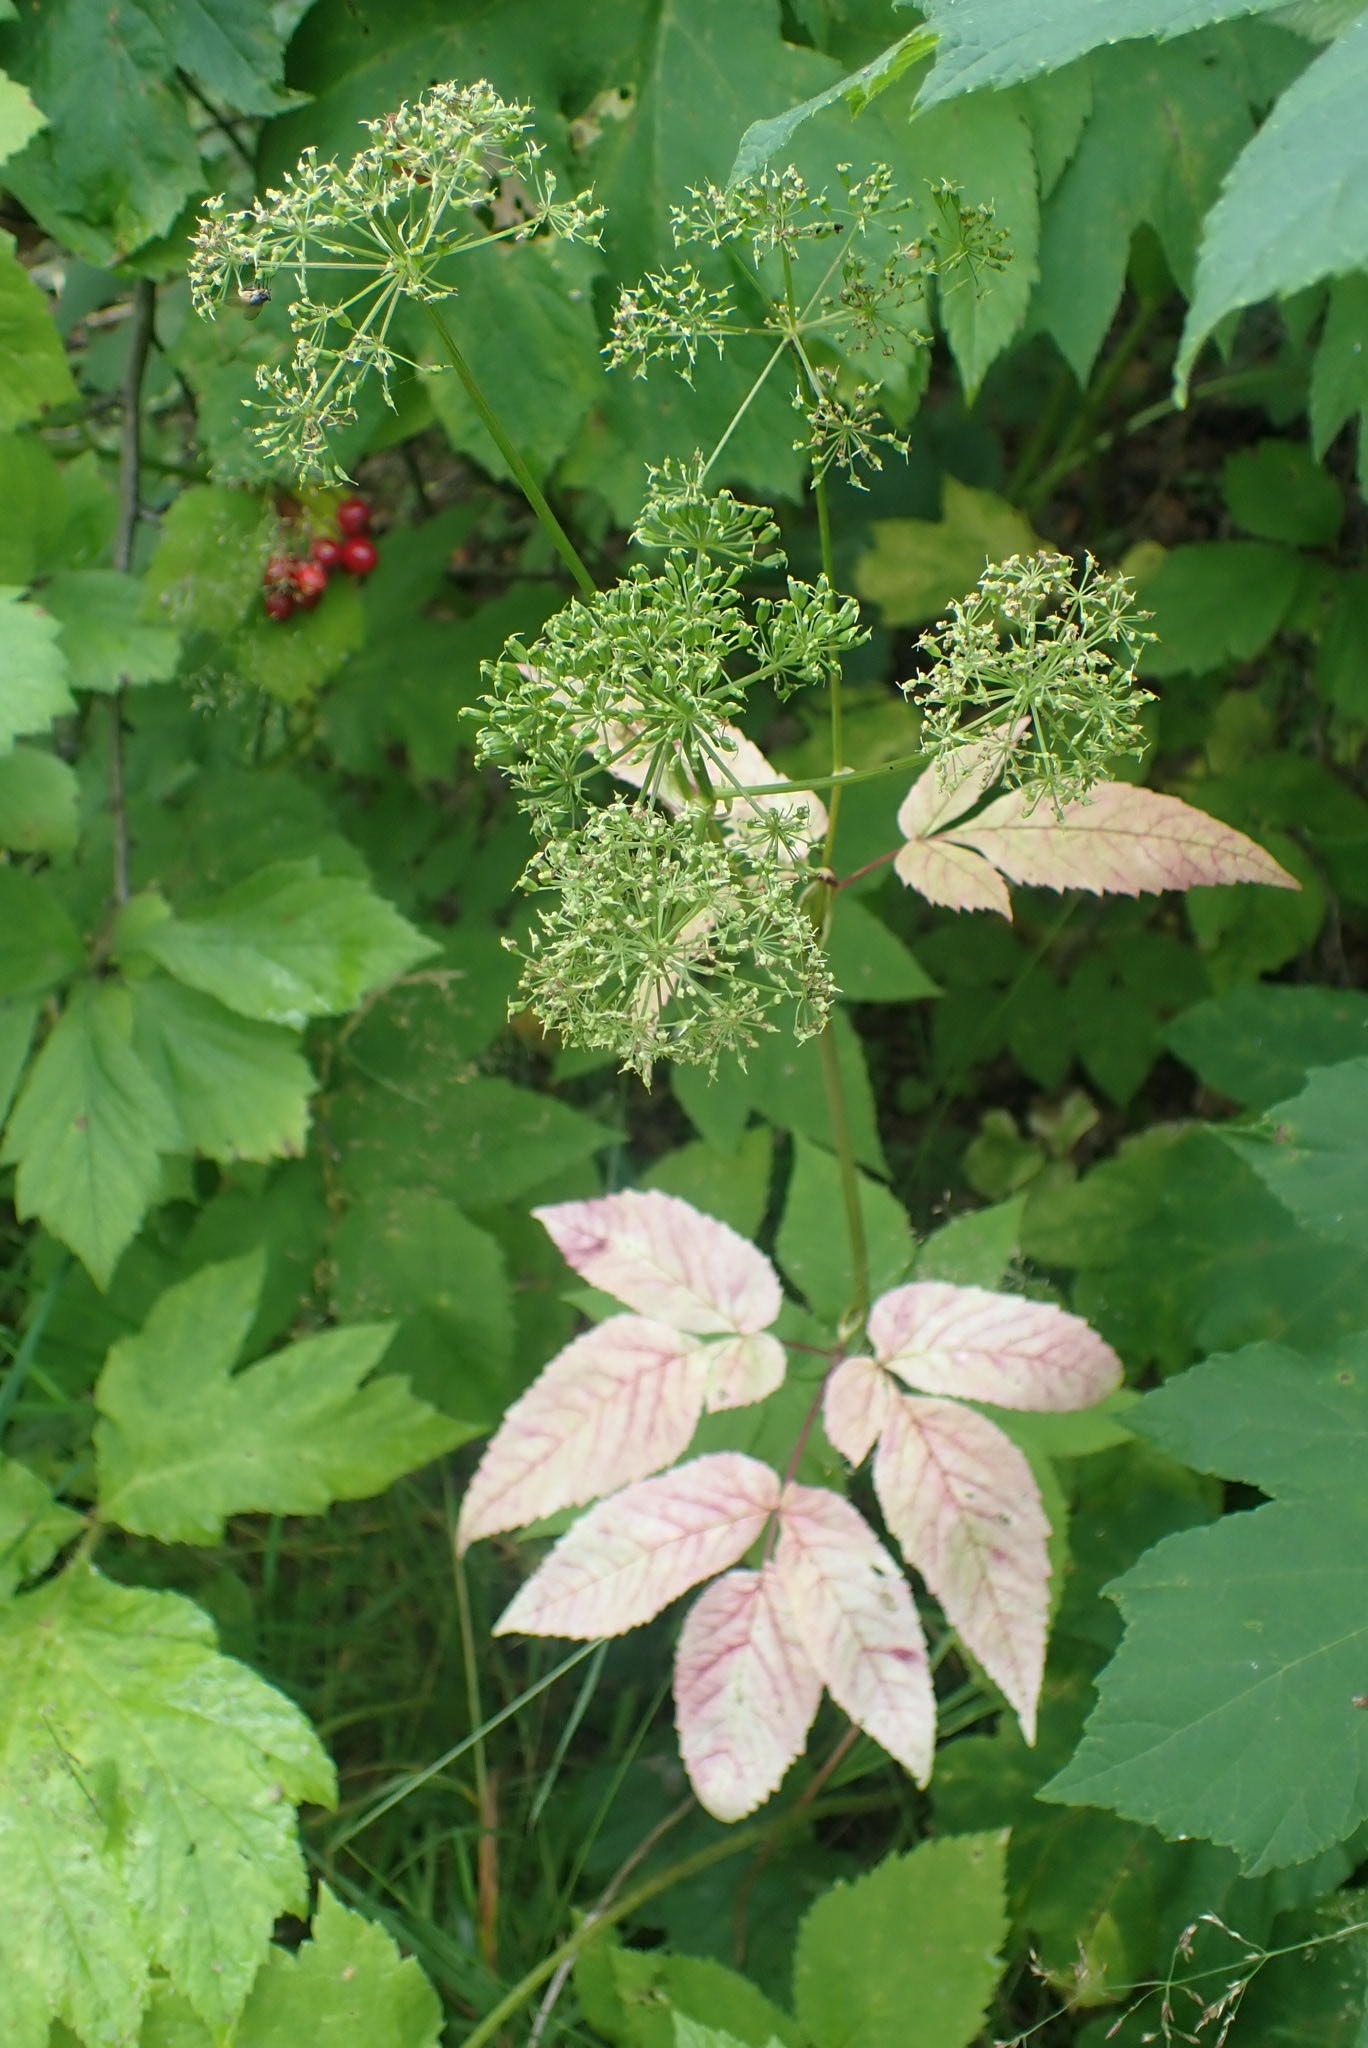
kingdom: Plantae
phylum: Tracheophyta
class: Magnoliopsida
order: Apiales
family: Apiaceae
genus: Aegopodium
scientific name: Aegopodium podagraria
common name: Ground-elder
